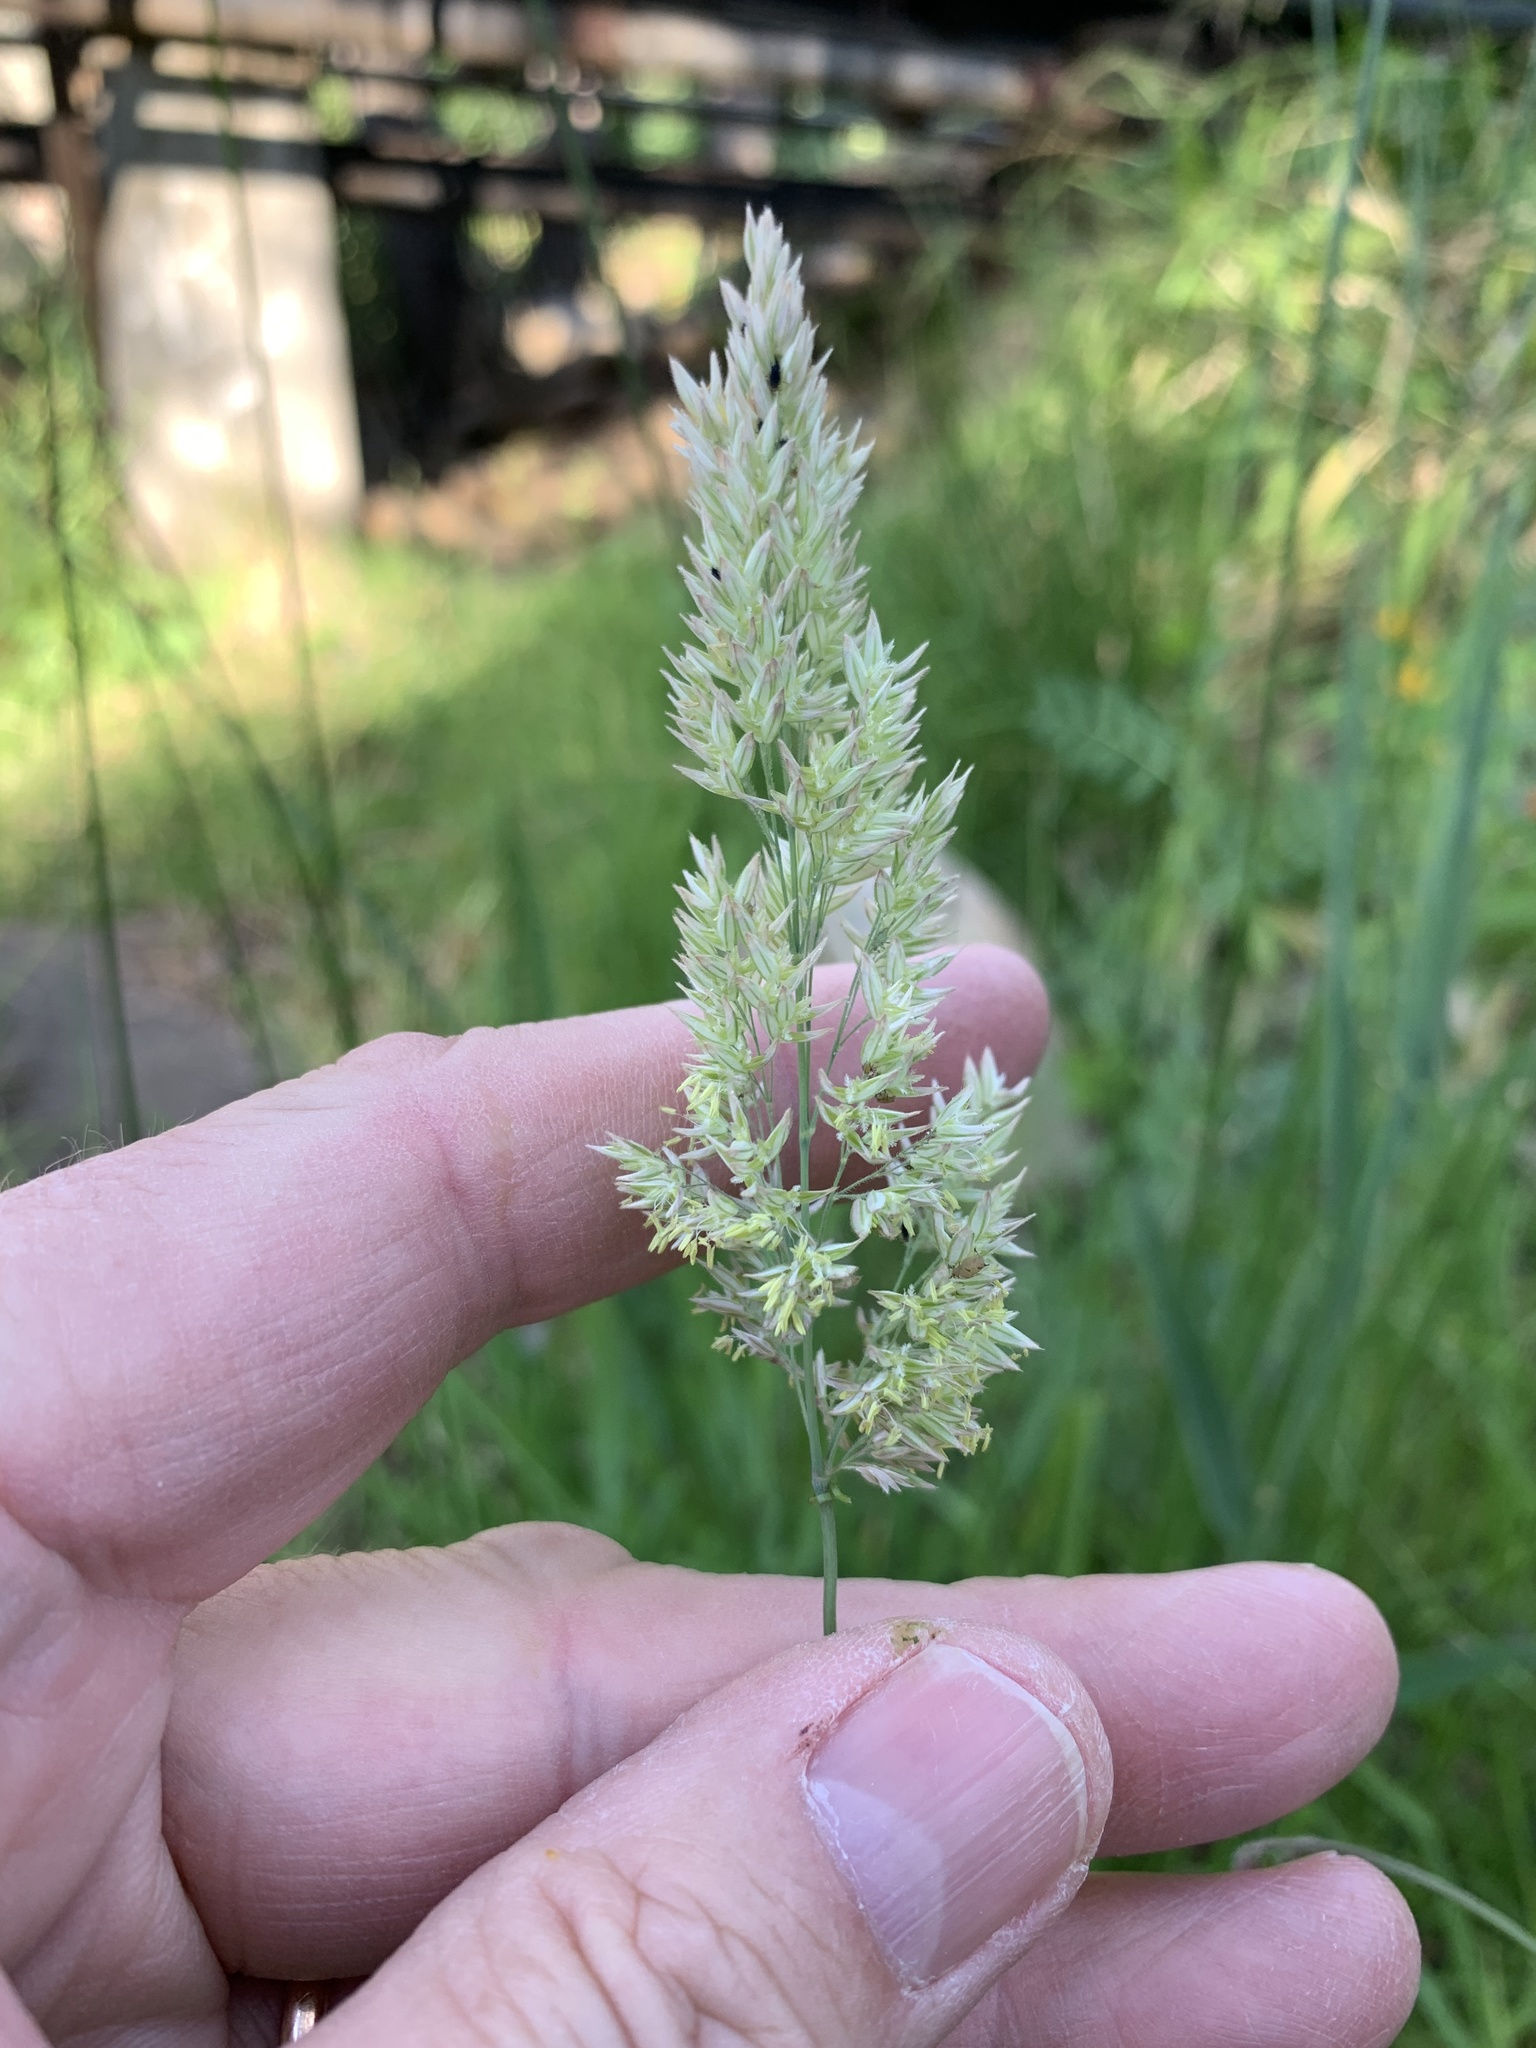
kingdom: Plantae
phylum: Tracheophyta
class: Liliopsida
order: Poales
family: Poaceae
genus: Holcus
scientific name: Holcus lanatus
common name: Yorkshire-fog
